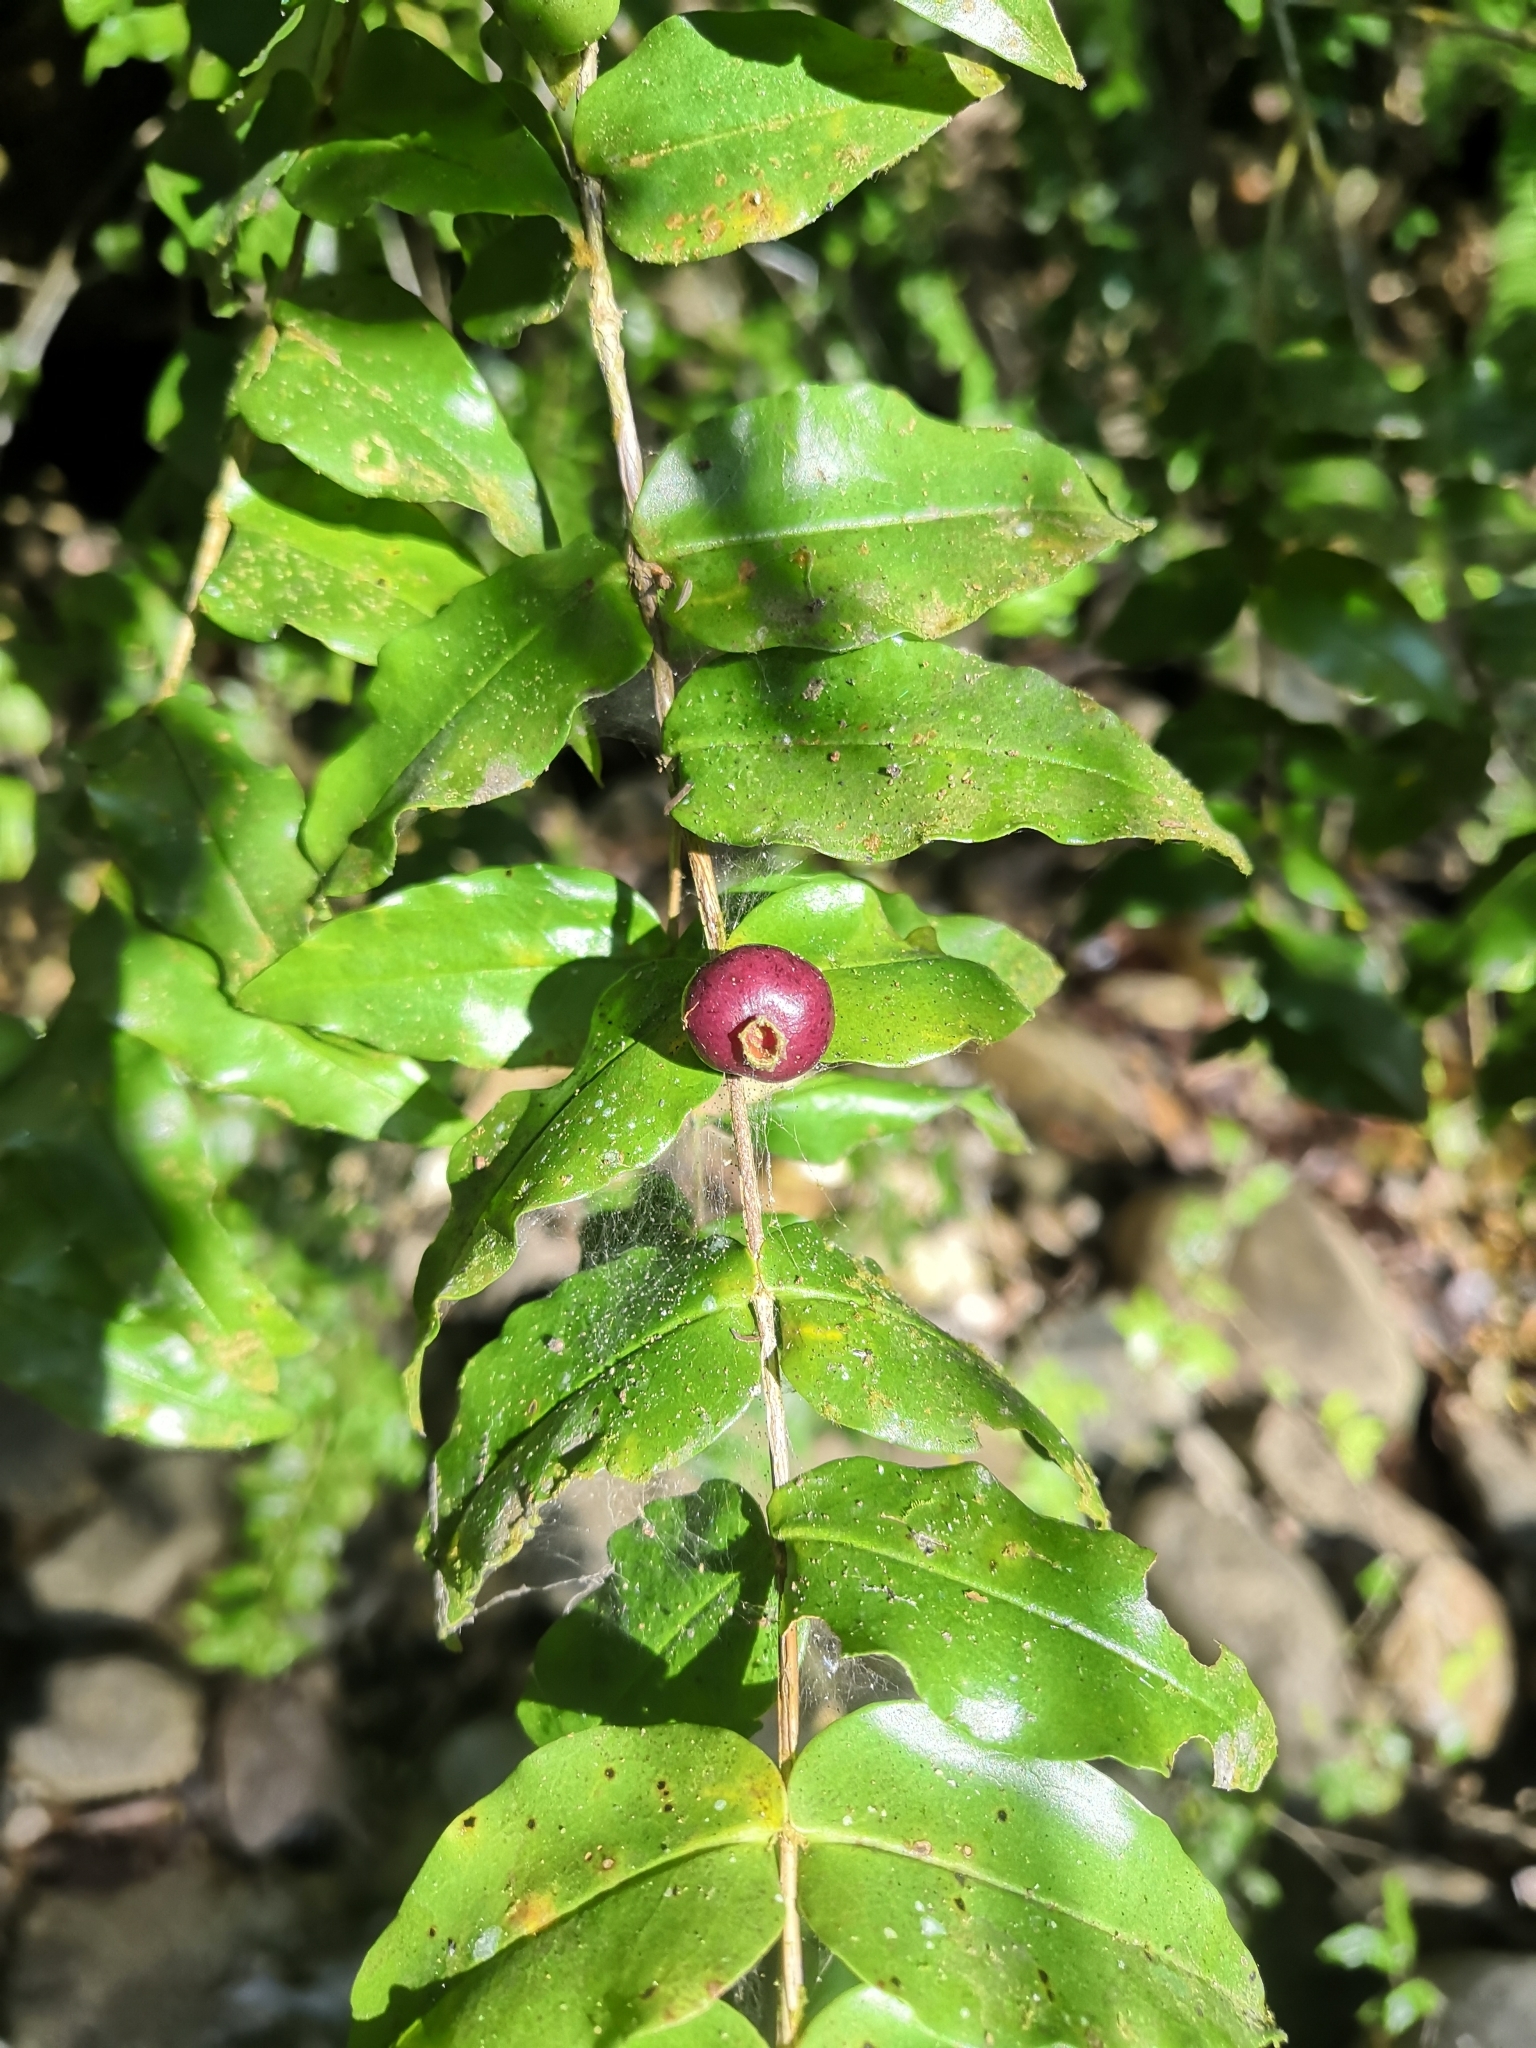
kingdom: Plantae
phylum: Tracheophyta
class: Magnoliopsida
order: Myrtales
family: Melastomataceae
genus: Mouriri
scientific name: Mouriri myrtilloides
